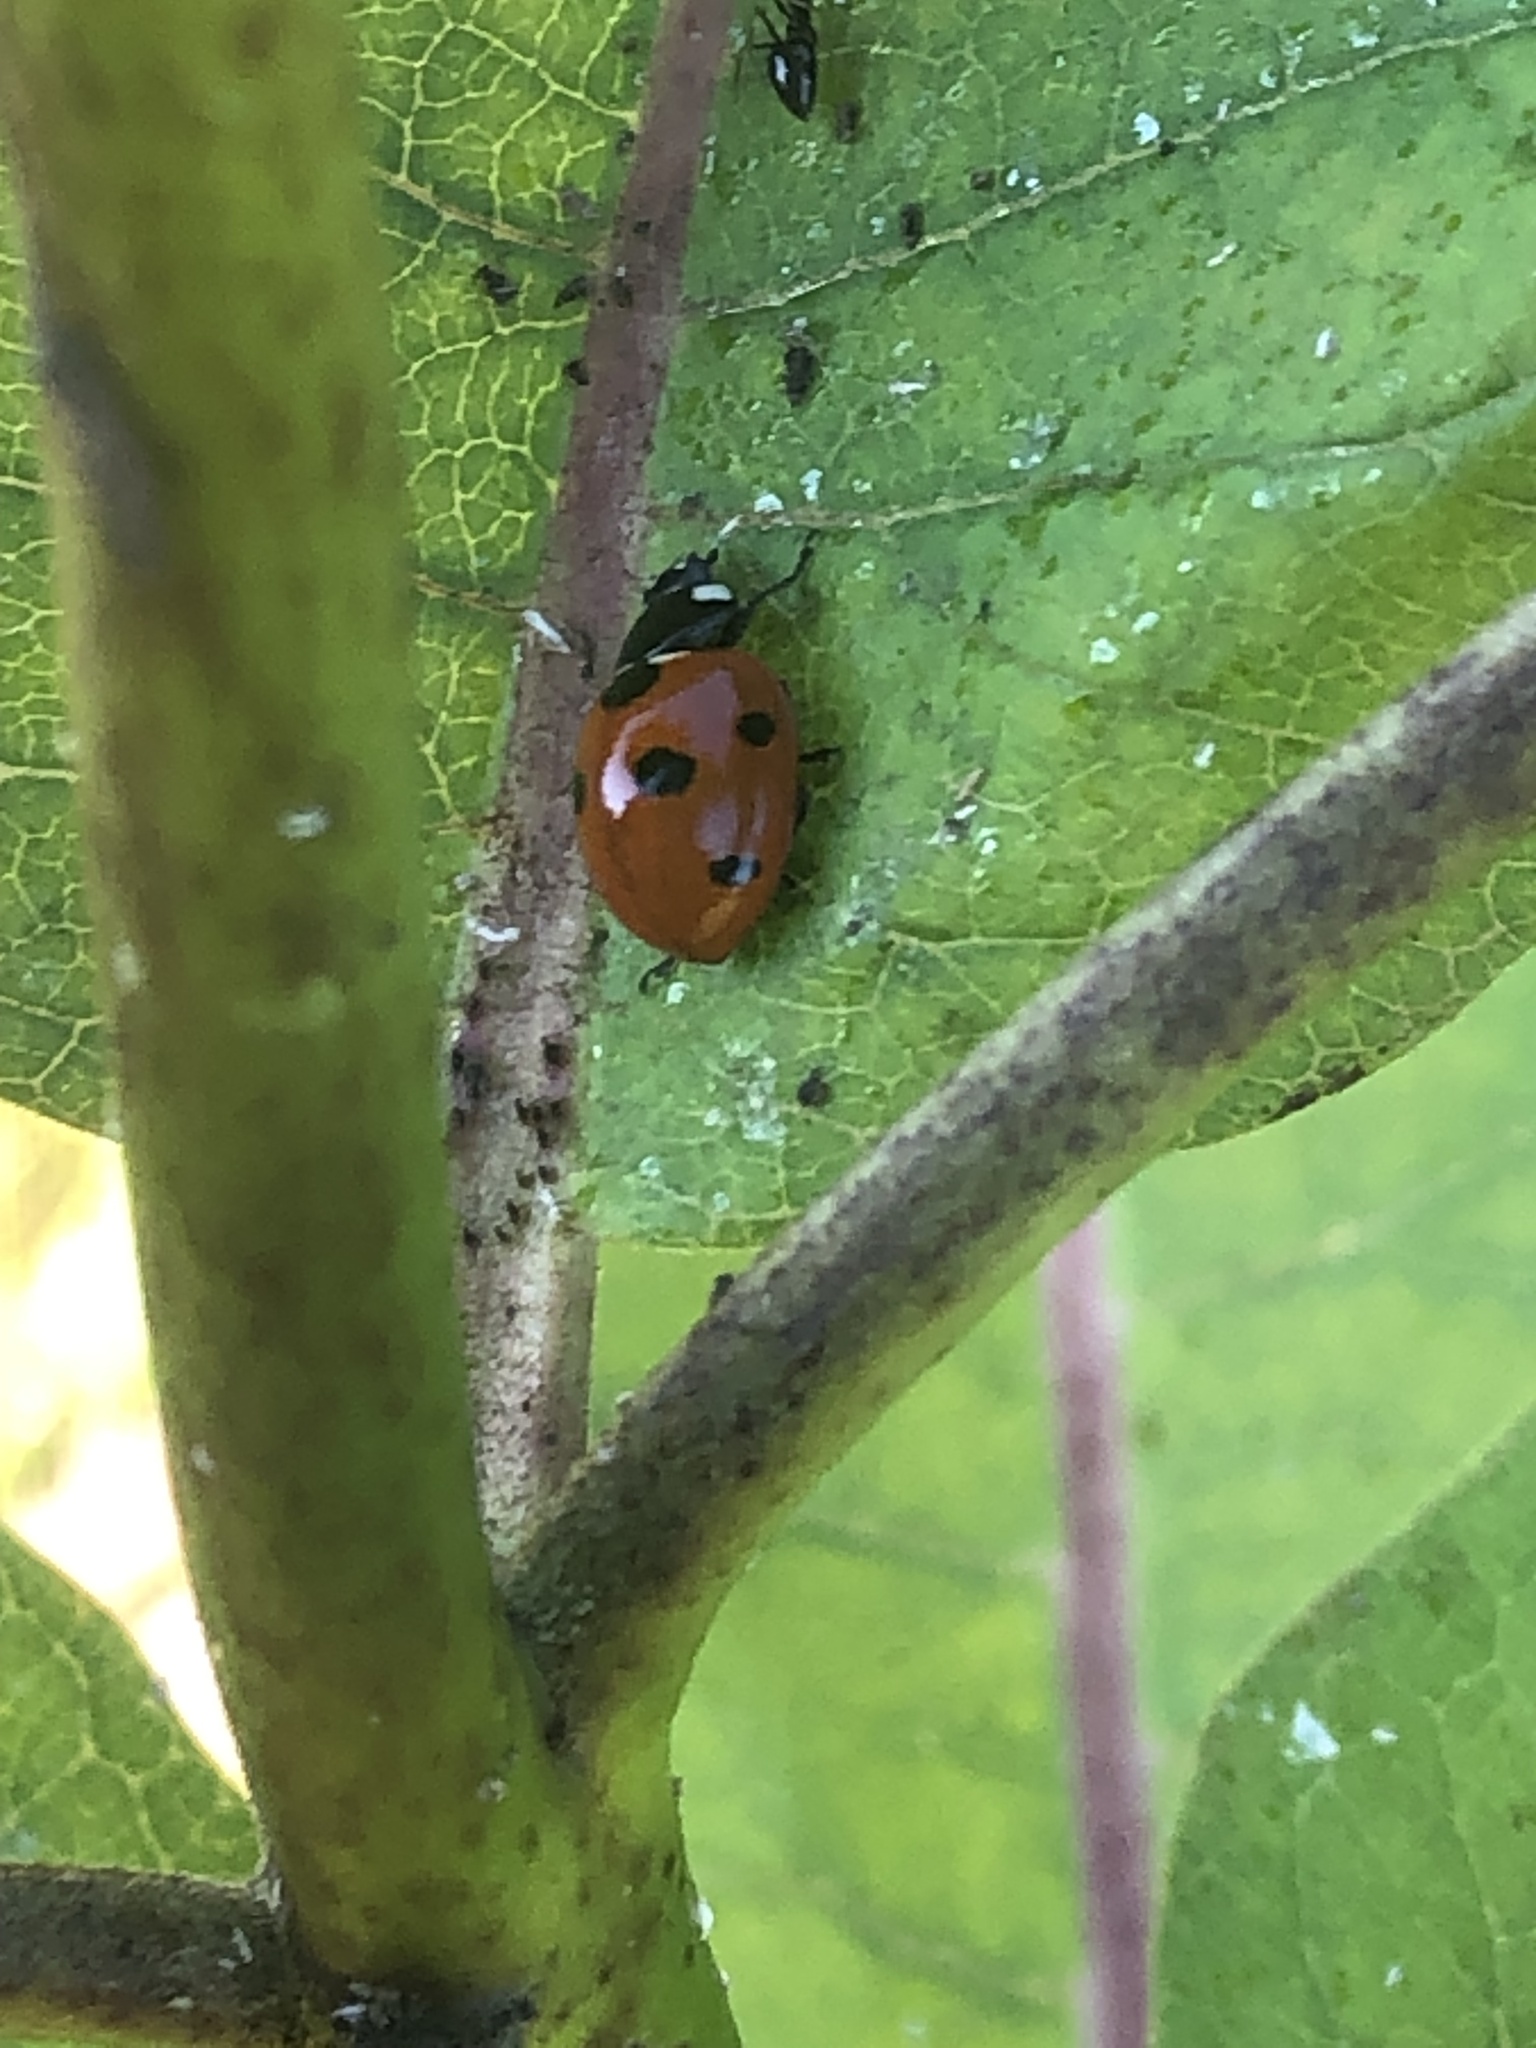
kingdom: Animalia
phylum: Arthropoda
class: Insecta
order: Coleoptera
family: Coccinellidae
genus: Coccinella
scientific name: Coccinella septempunctata
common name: Sevenspotted lady beetle
